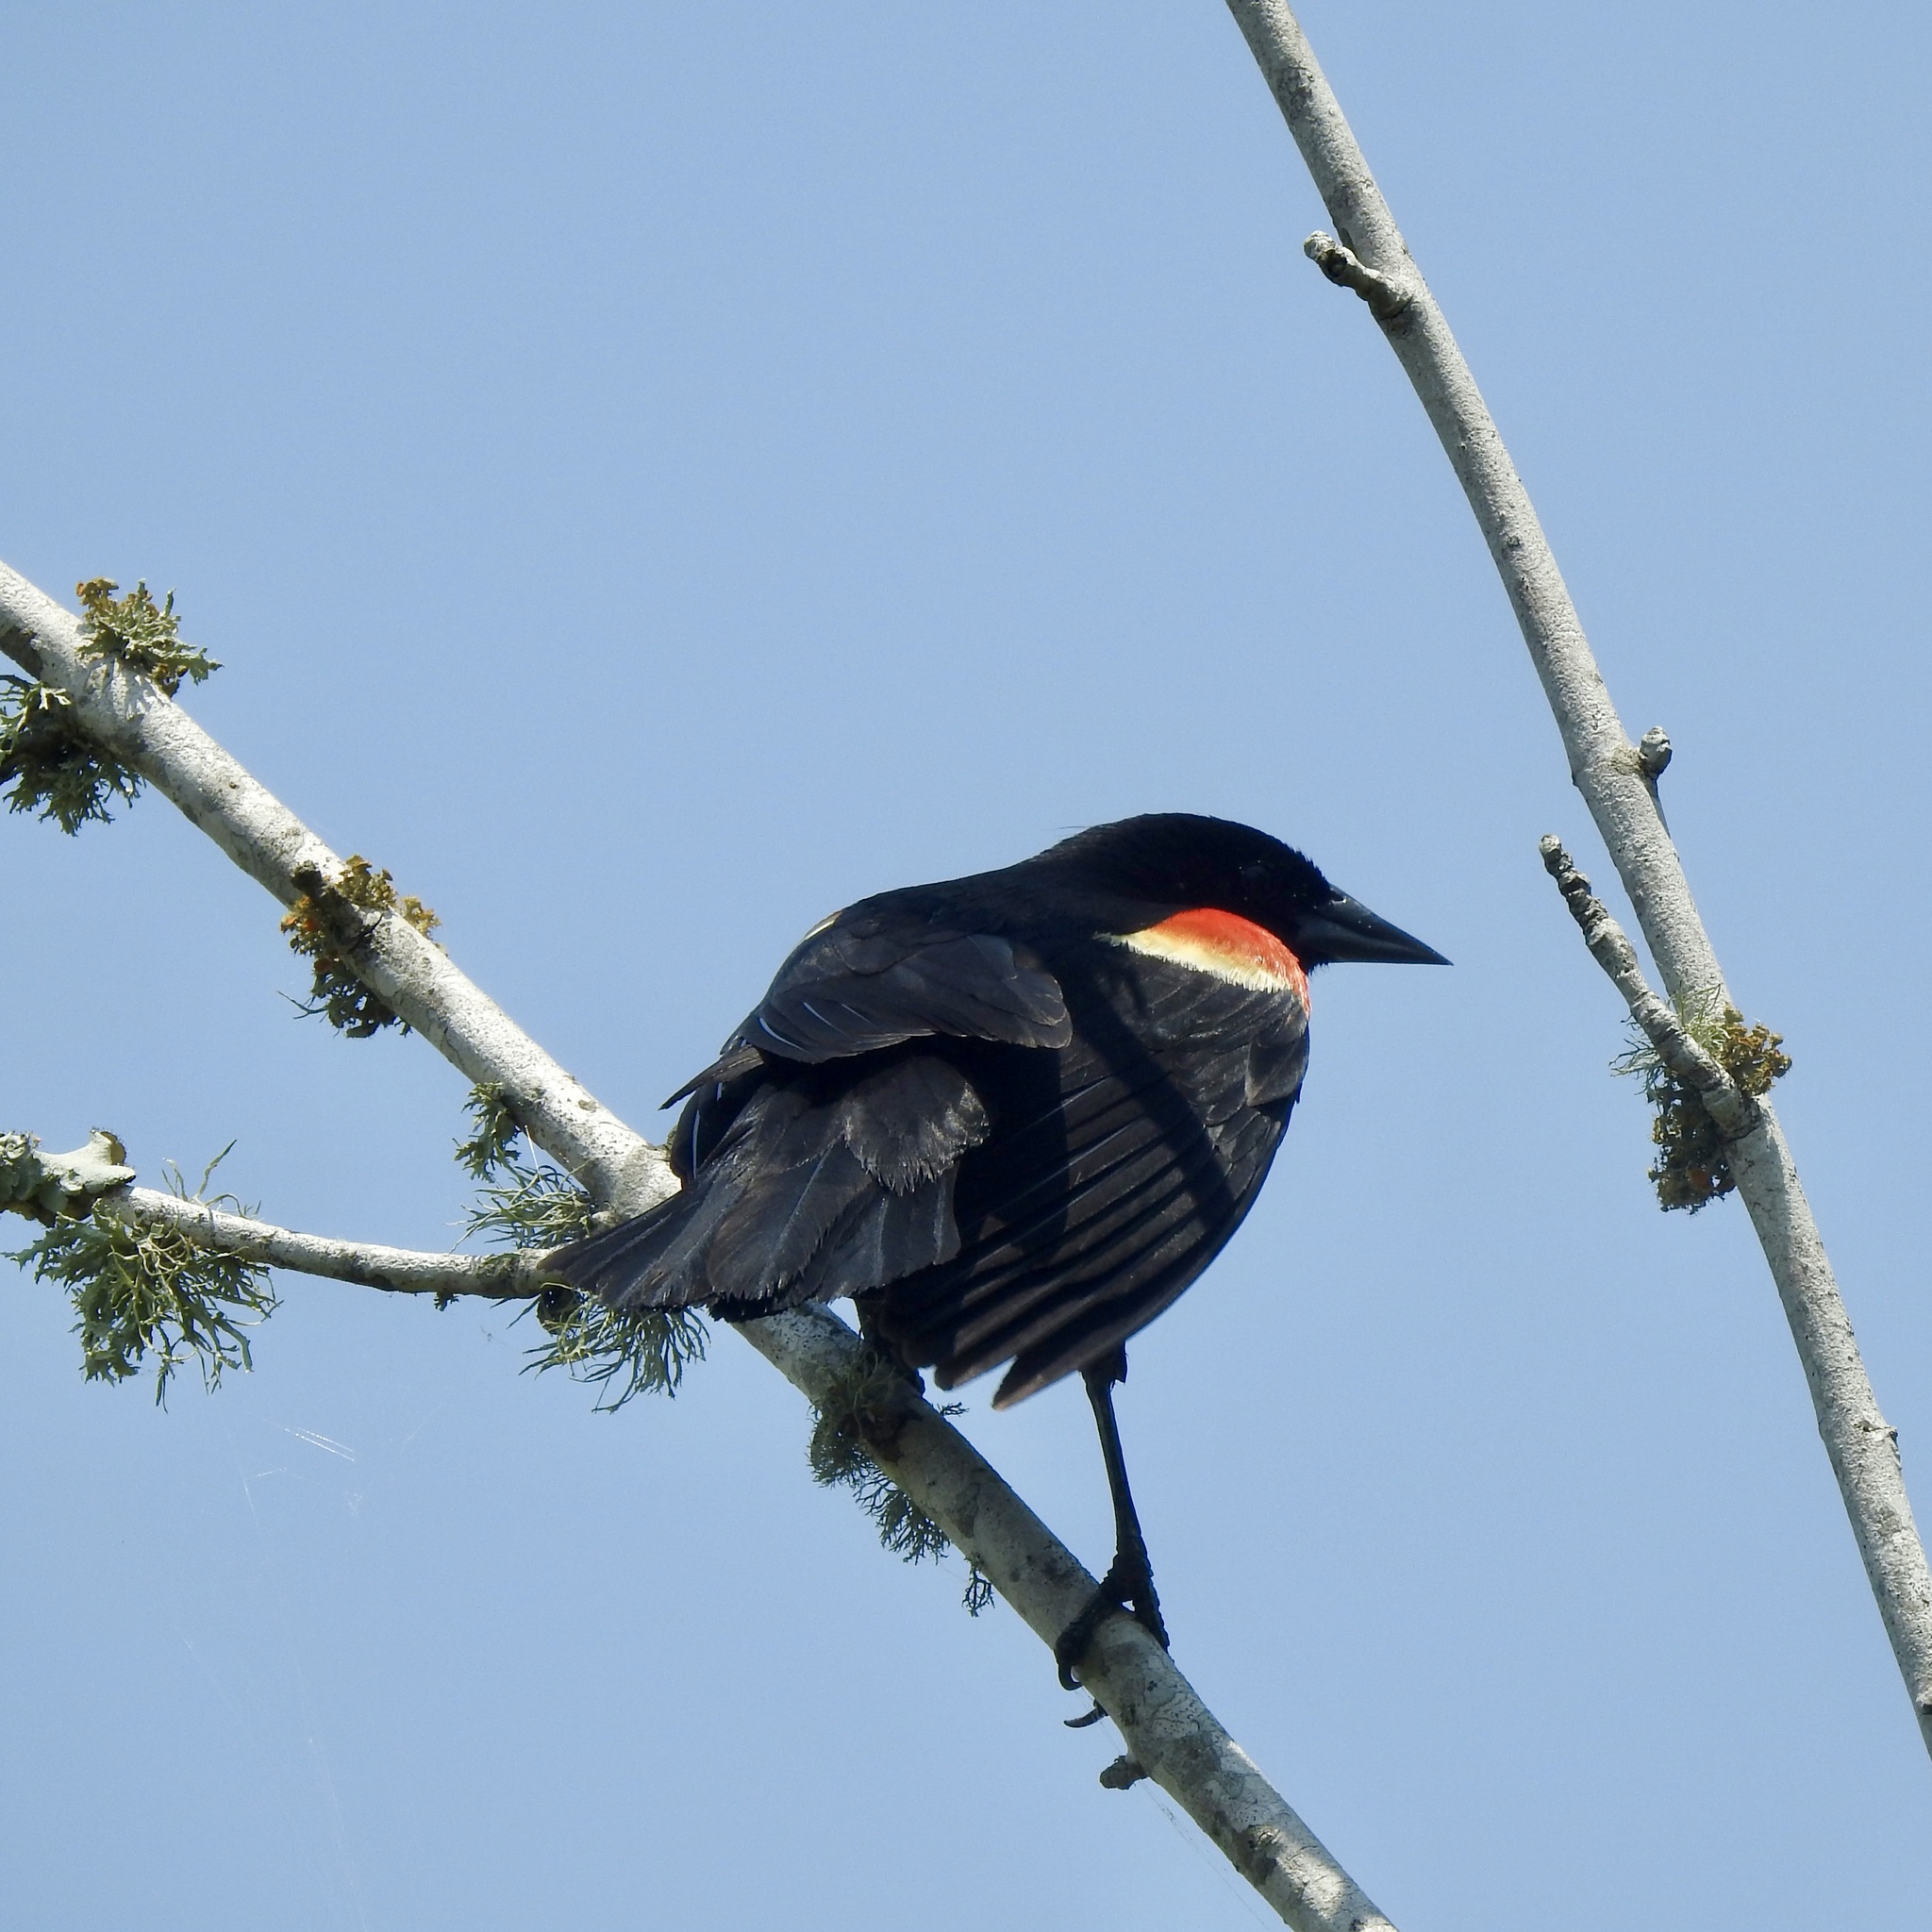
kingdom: Animalia
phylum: Chordata
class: Aves
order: Passeriformes
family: Icteridae
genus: Agelaius
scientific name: Agelaius phoeniceus
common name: Red-winged blackbird
